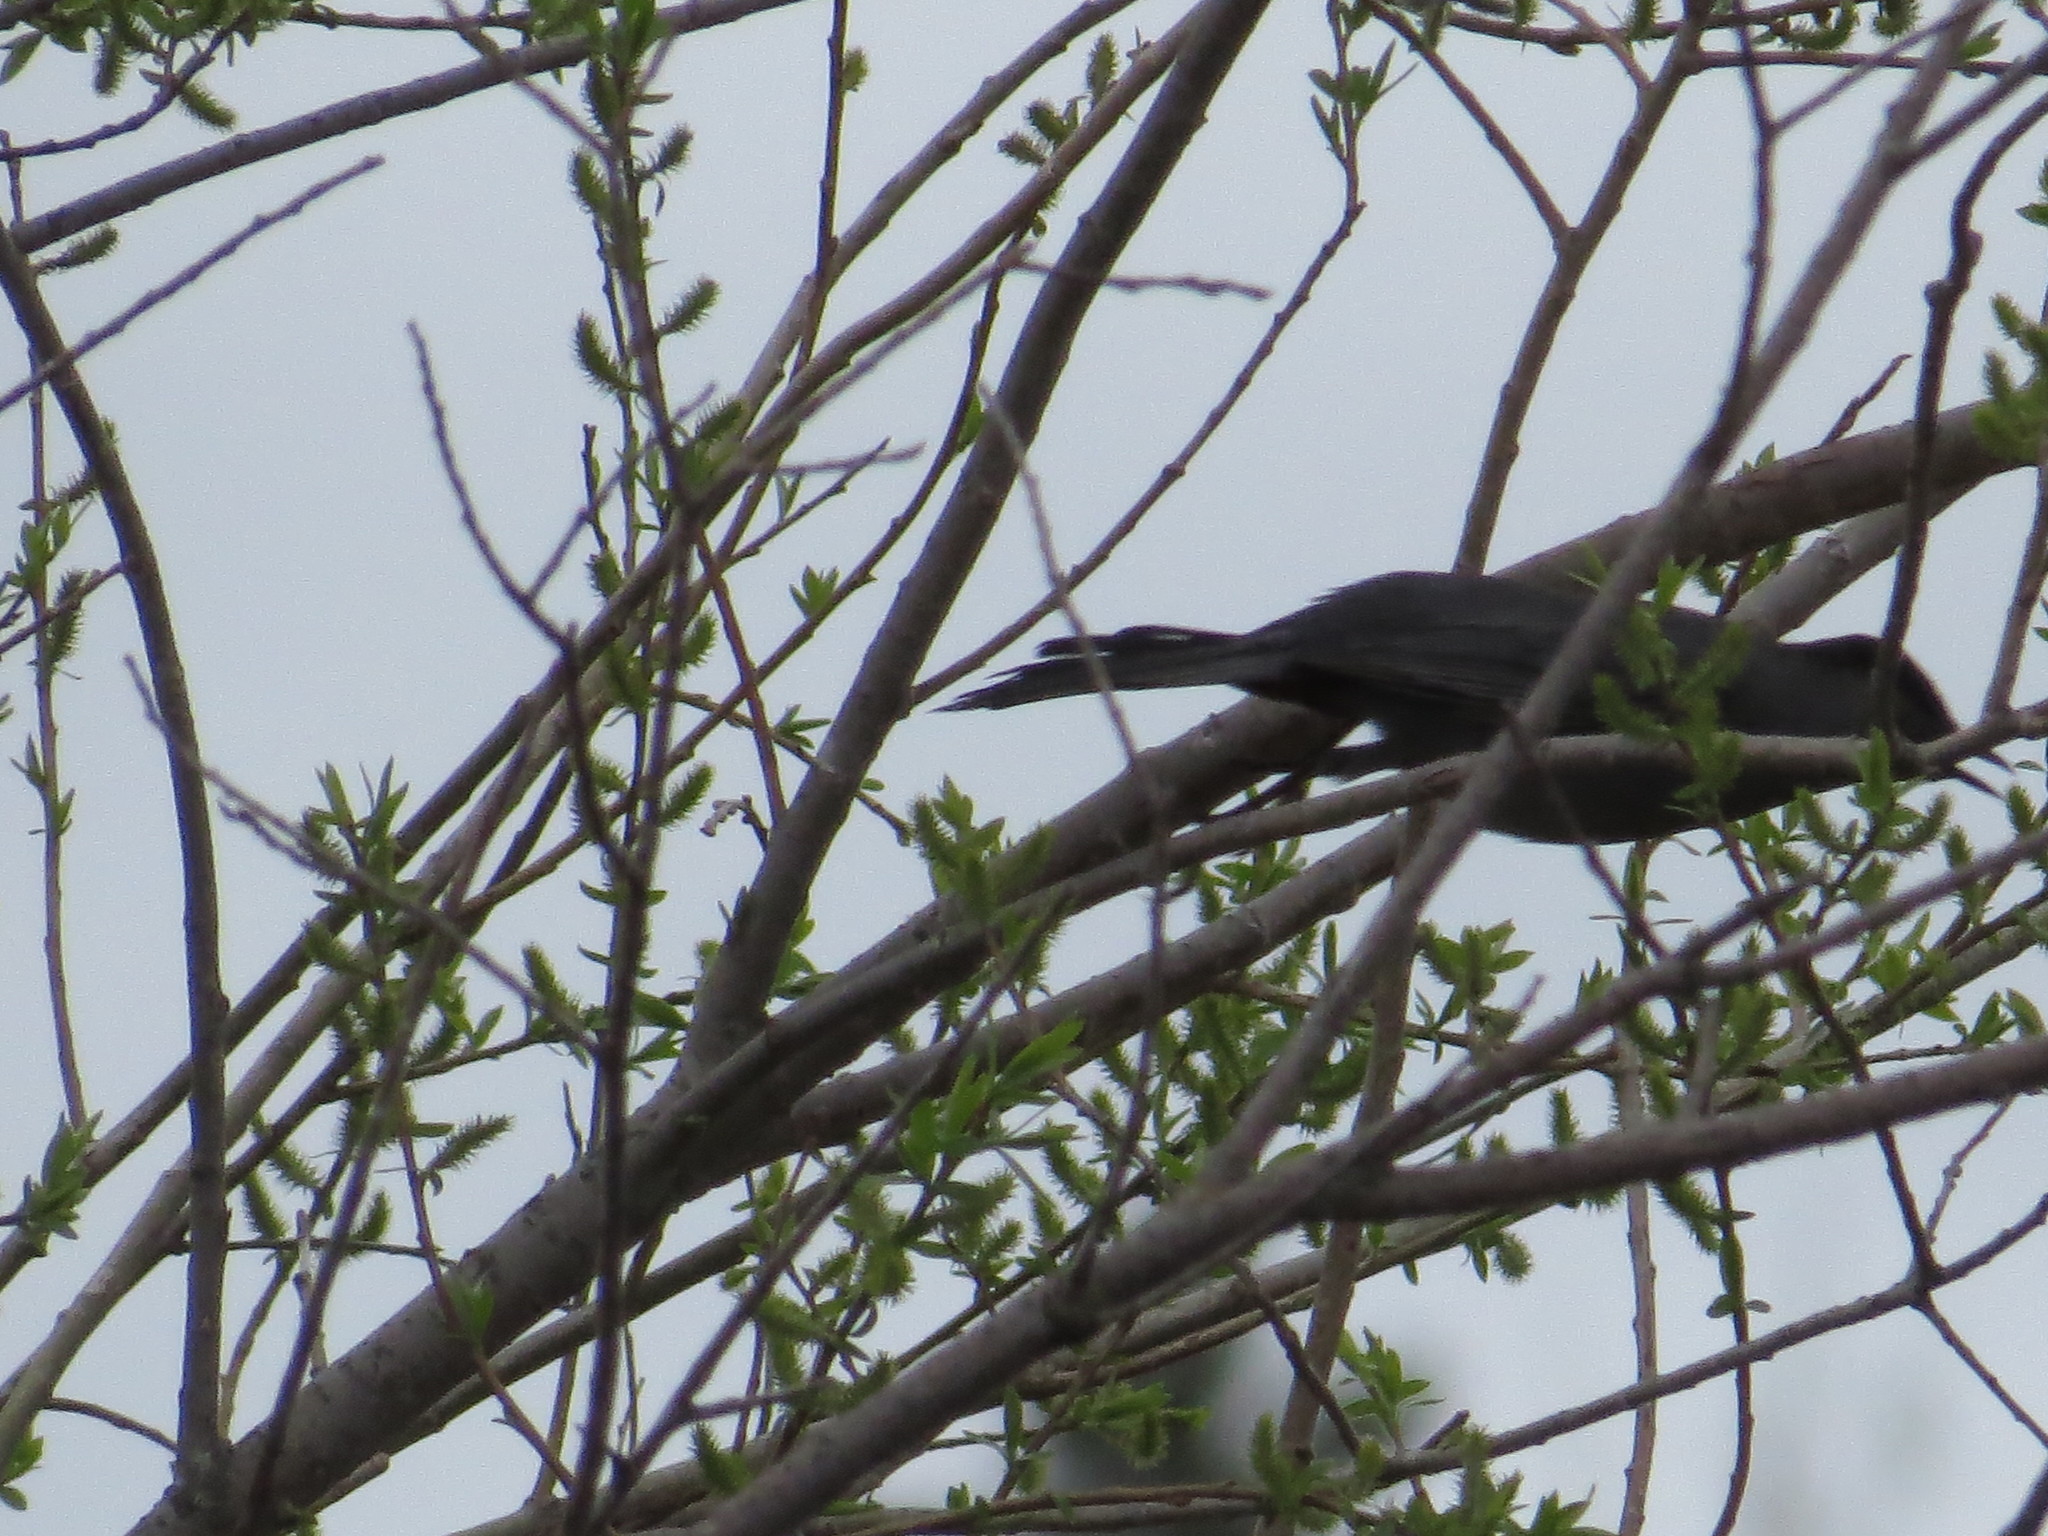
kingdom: Animalia
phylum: Chordata
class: Aves
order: Passeriformes
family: Mimidae
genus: Dumetella
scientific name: Dumetella carolinensis
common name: Gray catbird
